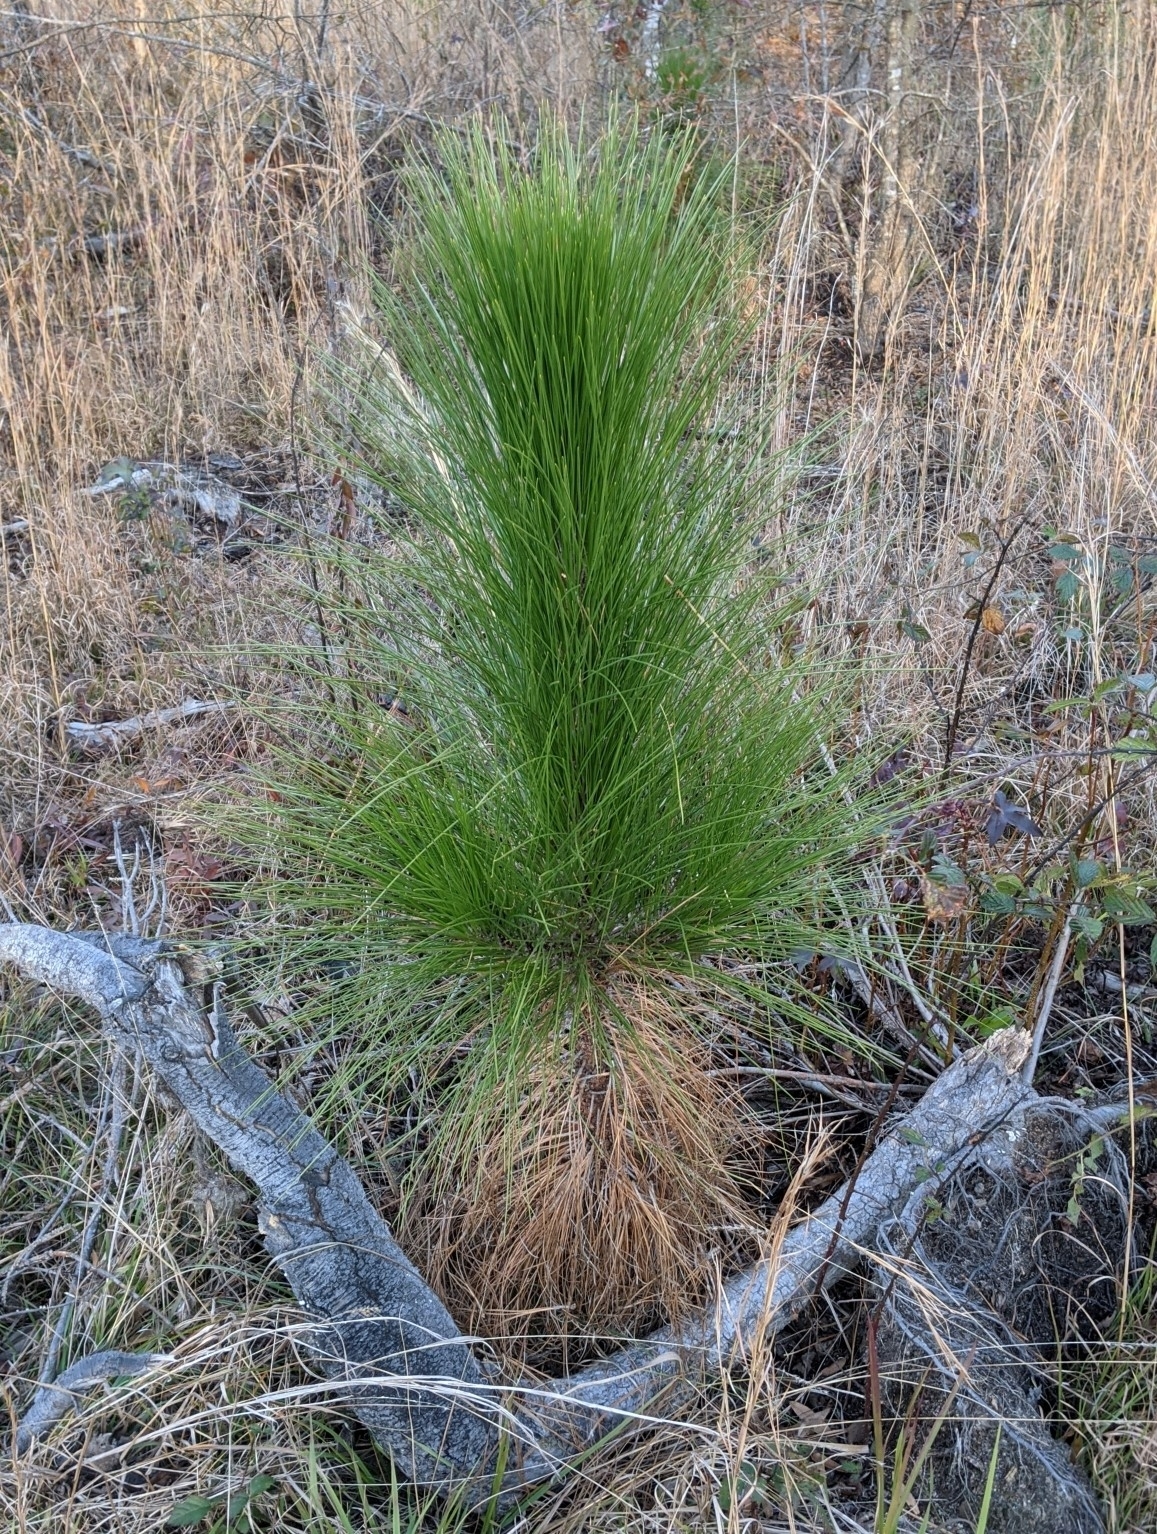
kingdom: Plantae
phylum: Tracheophyta
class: Pinopsida
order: Pinales
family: Pinaceae
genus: Pinus
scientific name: Pinus palustris
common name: Longleaf pine
